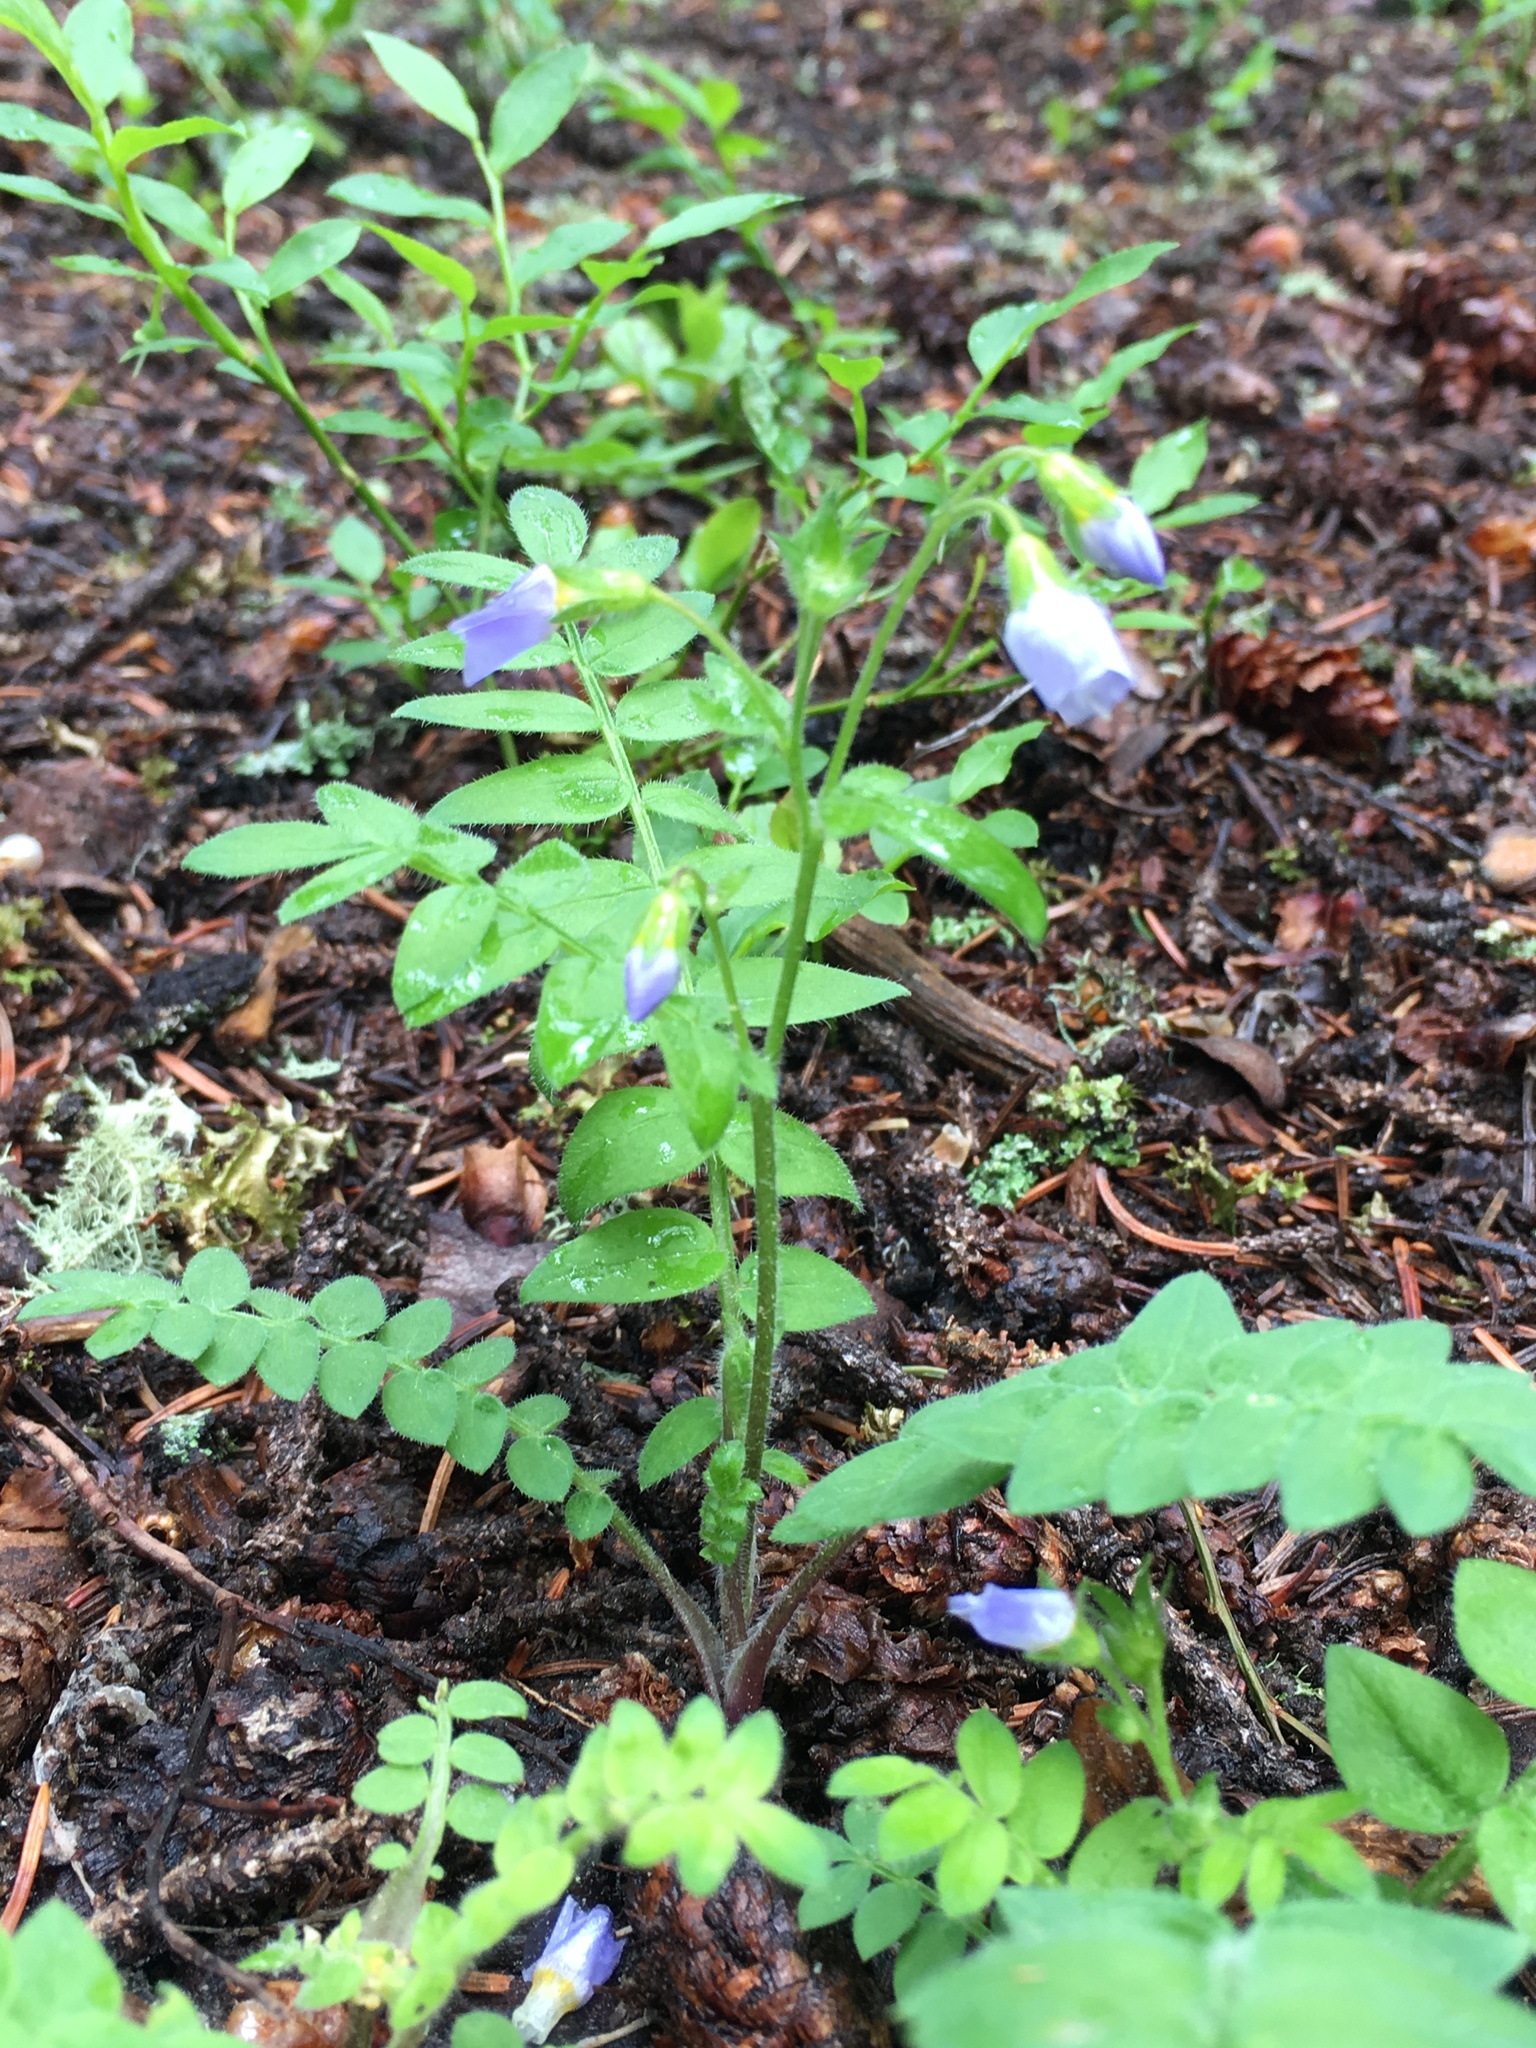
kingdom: Plantae
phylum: Tracheophyta
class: Magnoliopsida
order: Ericales
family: Polemoniaceae
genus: Polemonium
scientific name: Polemonium pulcherrimum
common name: Short jacob's-ladder
